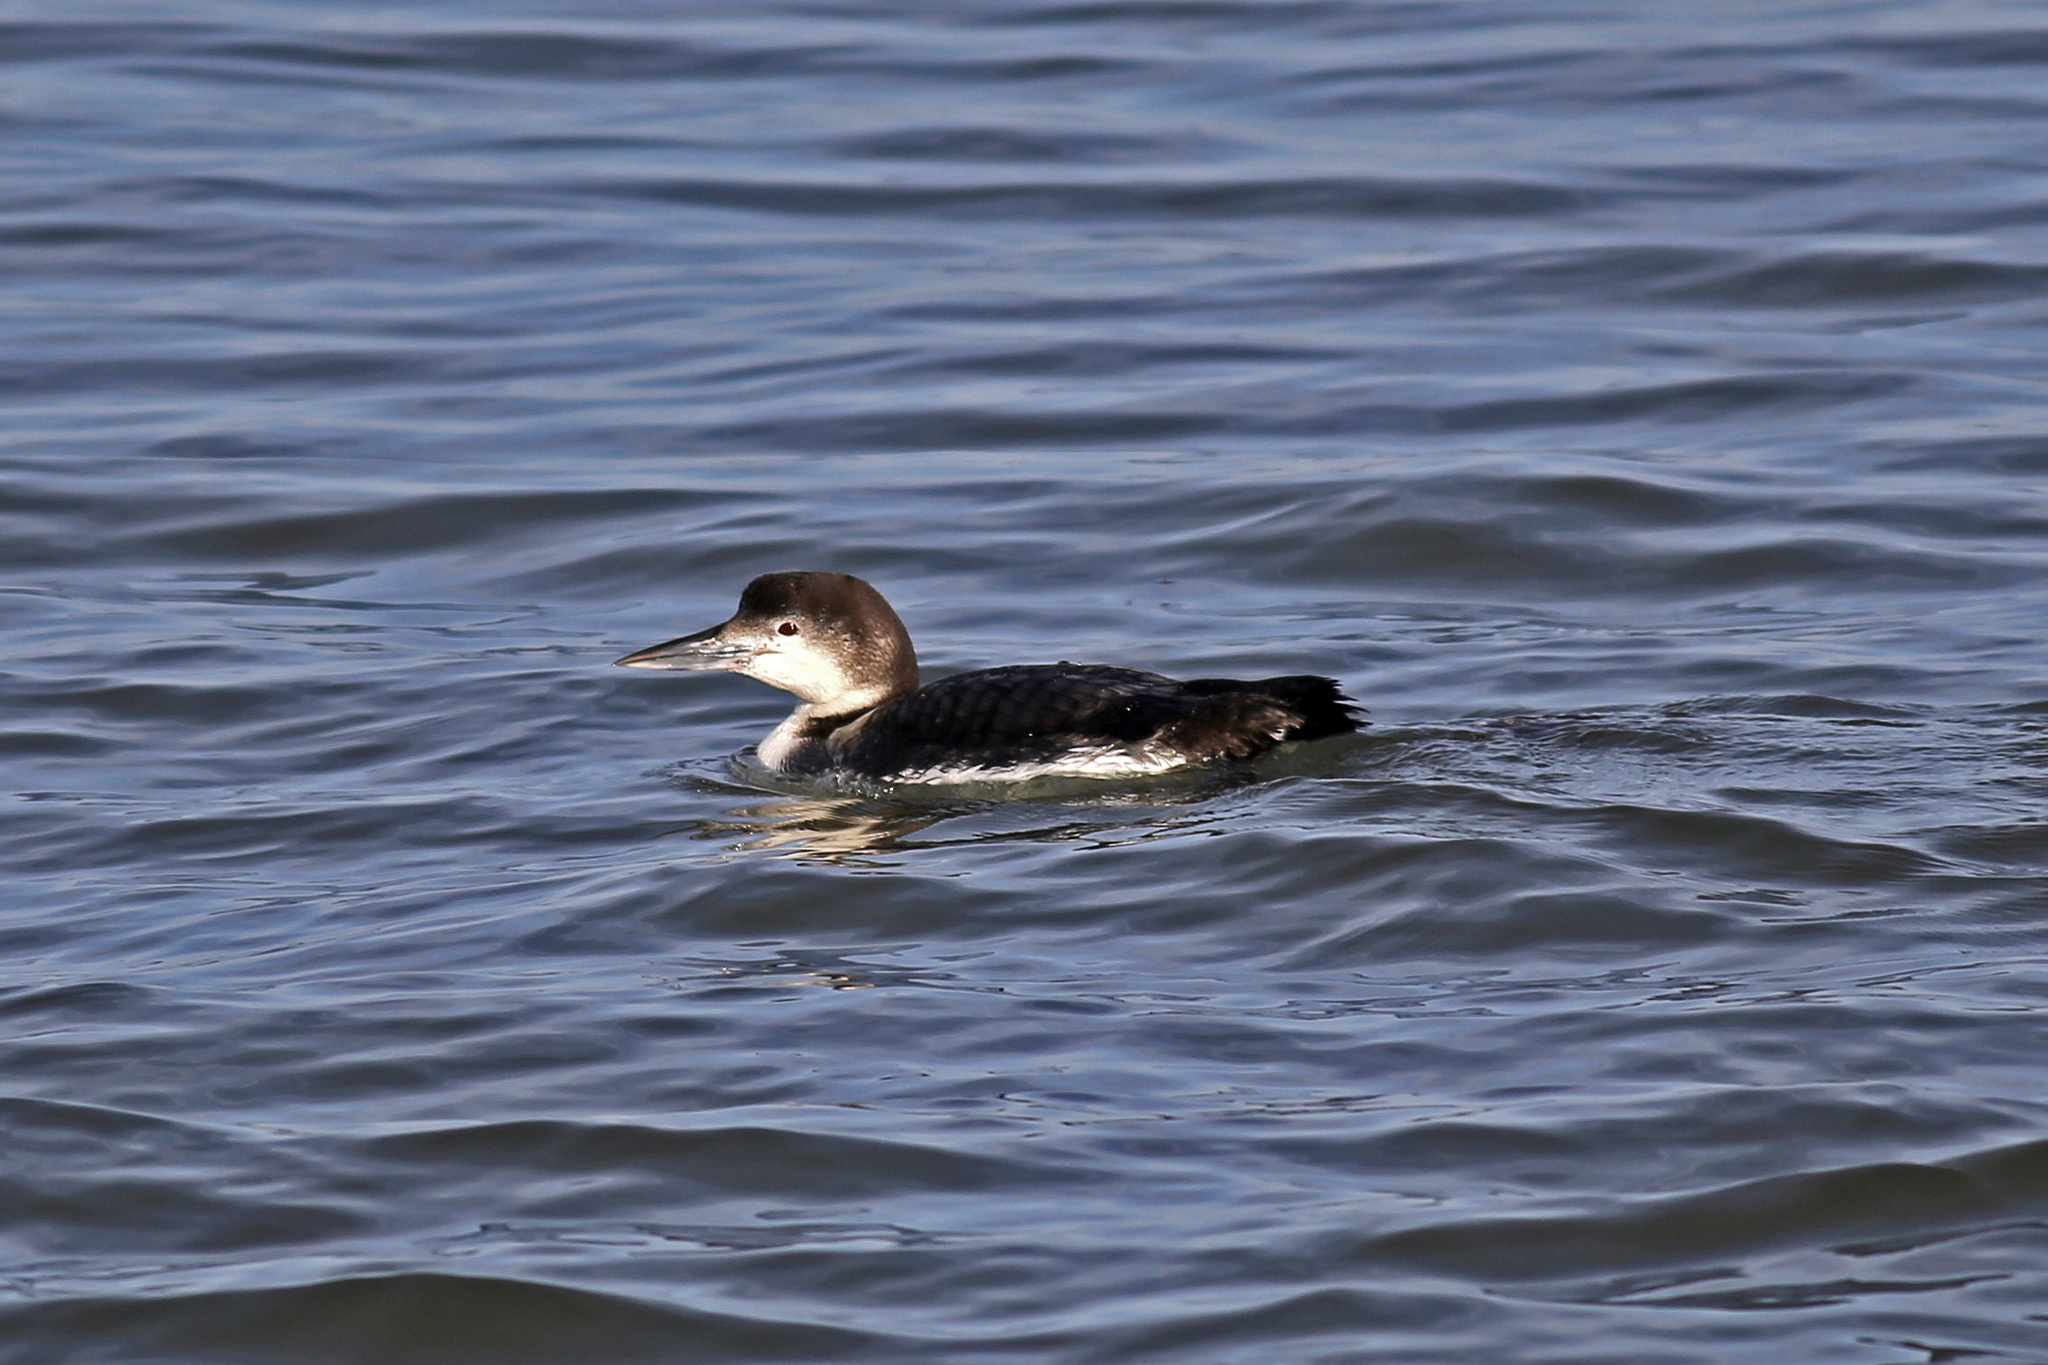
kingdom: Animalia
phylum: Chordata
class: Aves
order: Gaviiformes
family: Gaviidae
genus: Gavia
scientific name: Gavia immer
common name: Common loon
